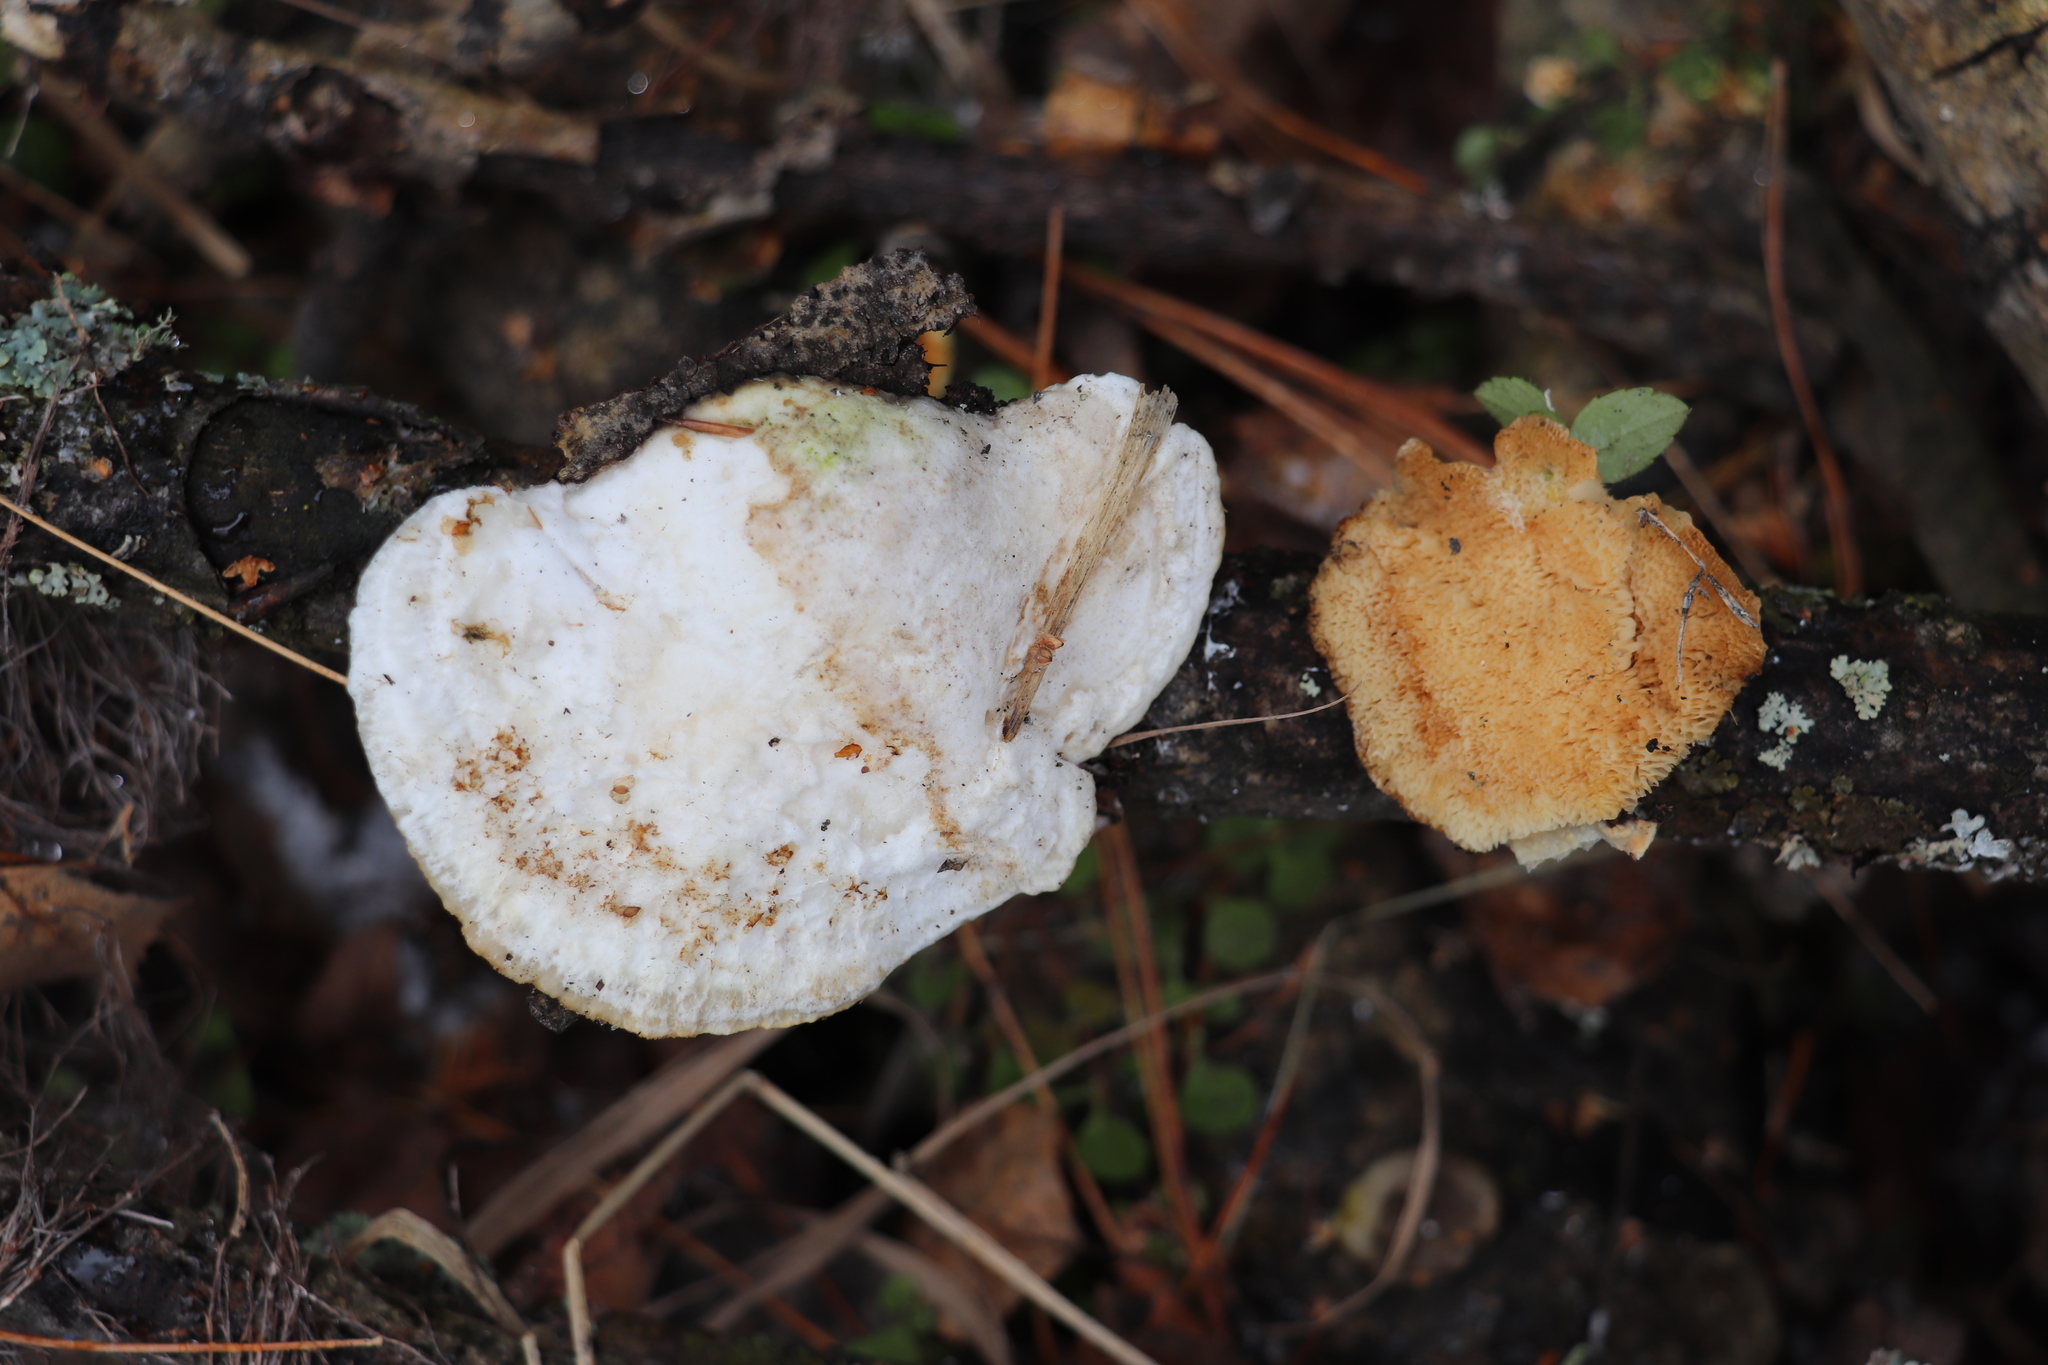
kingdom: Fungi
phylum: Basidiomycota
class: Agaricomycetes
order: Polyporales
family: Polyporaceae
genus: Trametes
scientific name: Trametes pubescens
